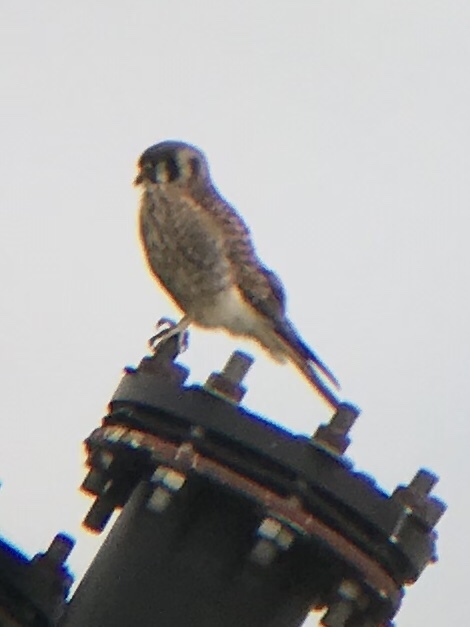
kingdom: Animalia
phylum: Chordata
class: Aves
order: Falconiformes
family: Falconidae
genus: Falco
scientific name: Falco sparverius
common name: American kestrel
